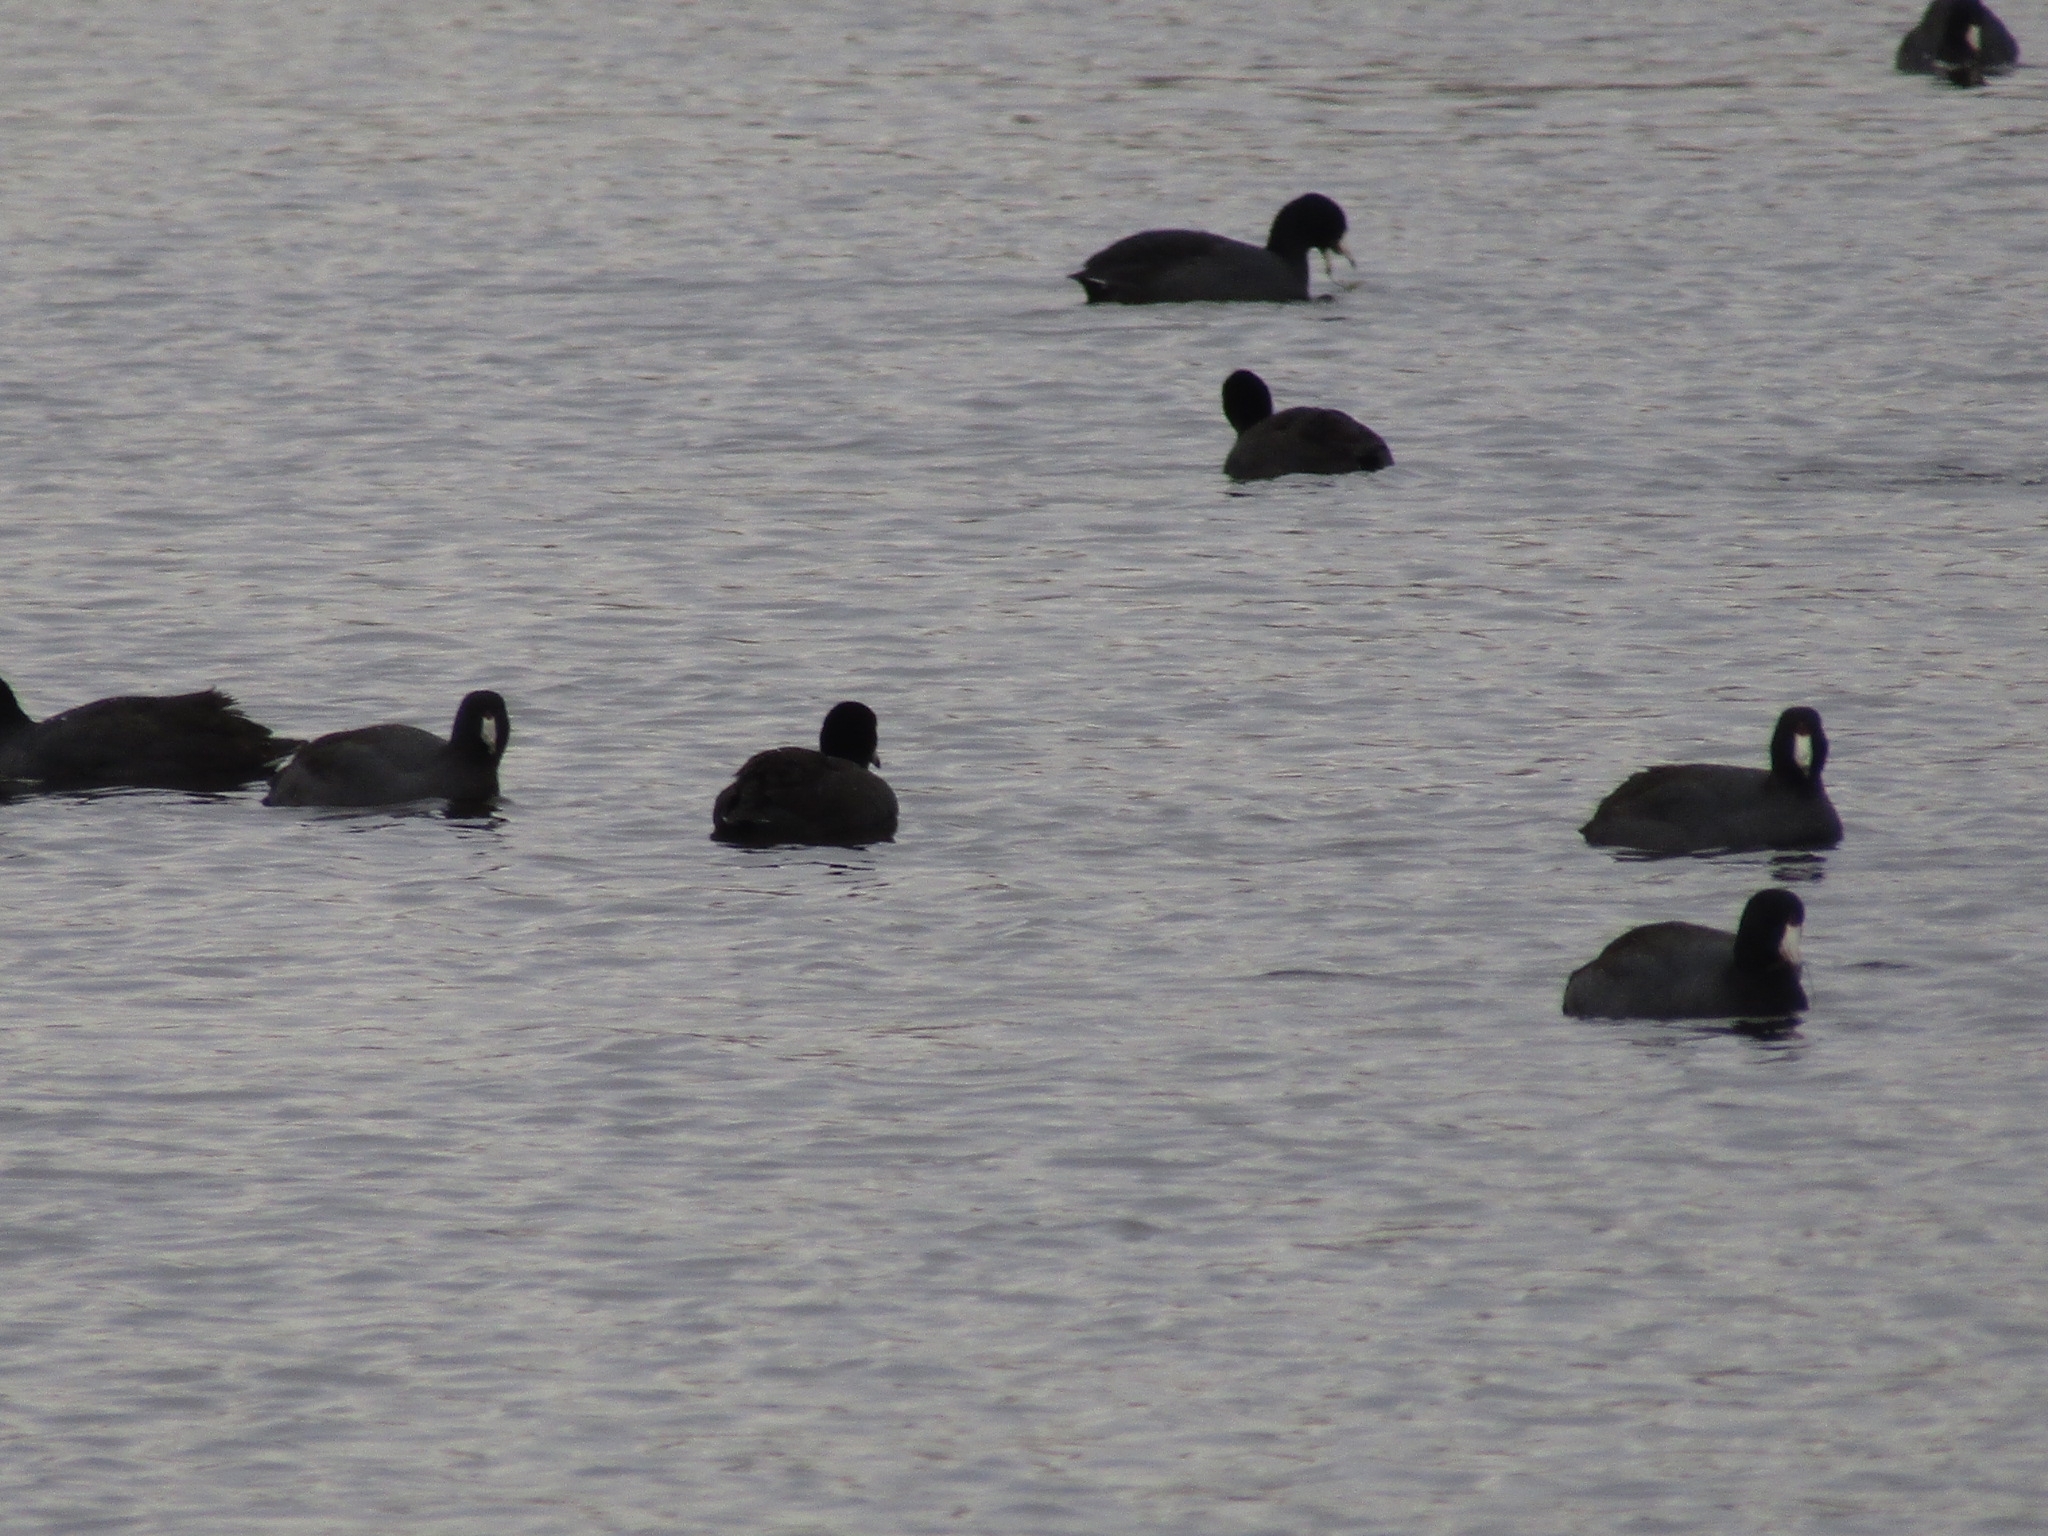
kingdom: Animalia
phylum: Chordata
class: Aves
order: Gruiformes
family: Rallidae
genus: Fulica
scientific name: Fulica americana
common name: American coot
